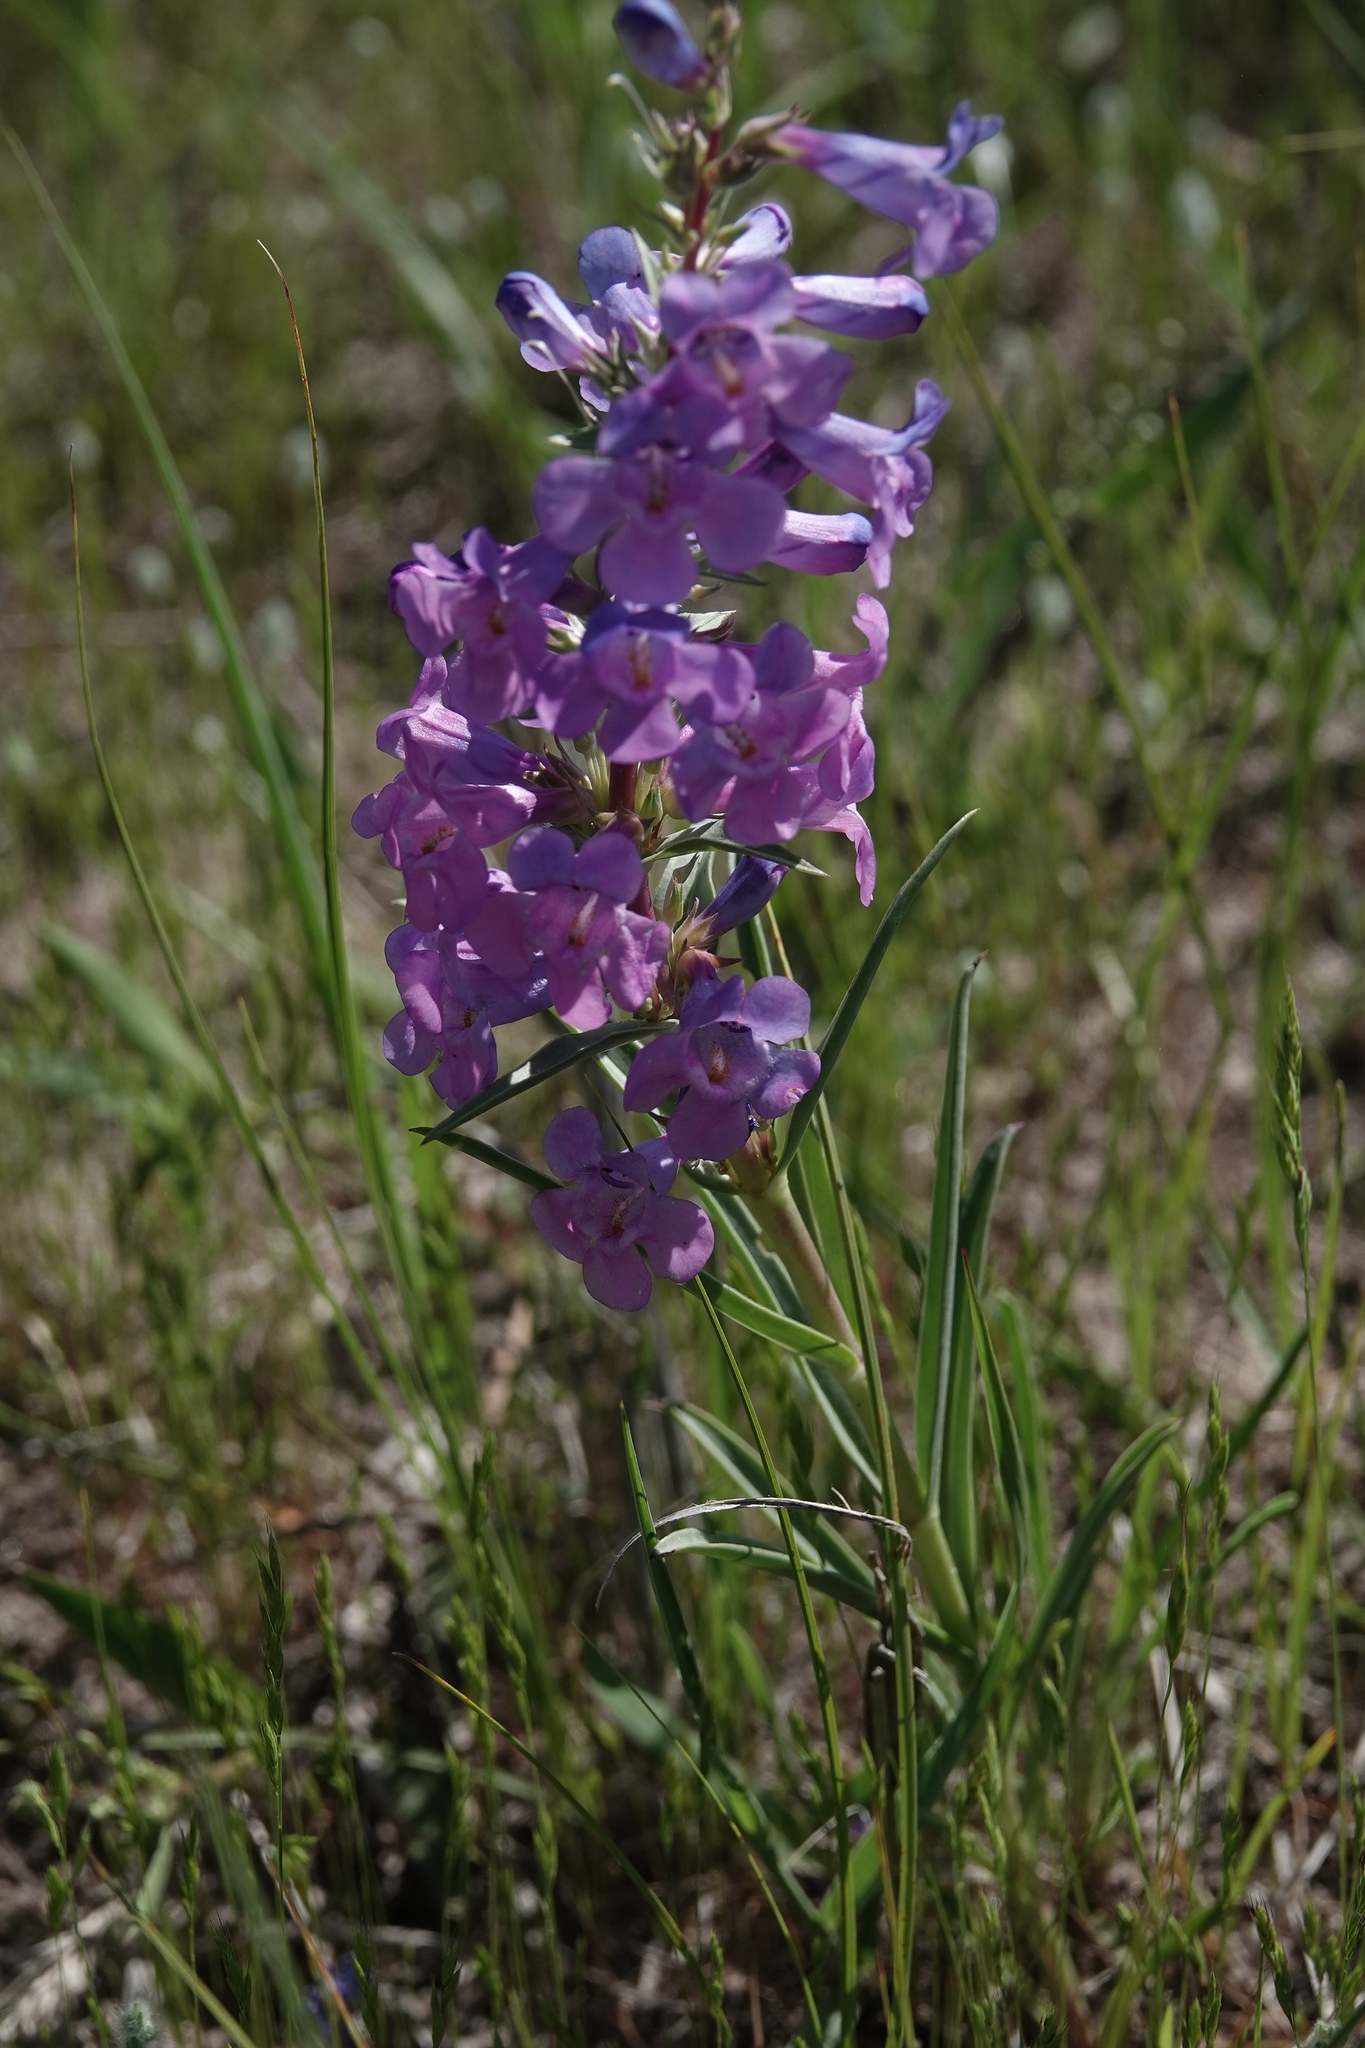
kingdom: Plantae
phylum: Tracheophyta
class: Magnoliopsida
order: Lamiales
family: Plantaginaceae
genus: Penstemon
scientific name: Penstemon angustifolius
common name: Narrow beardtongue
